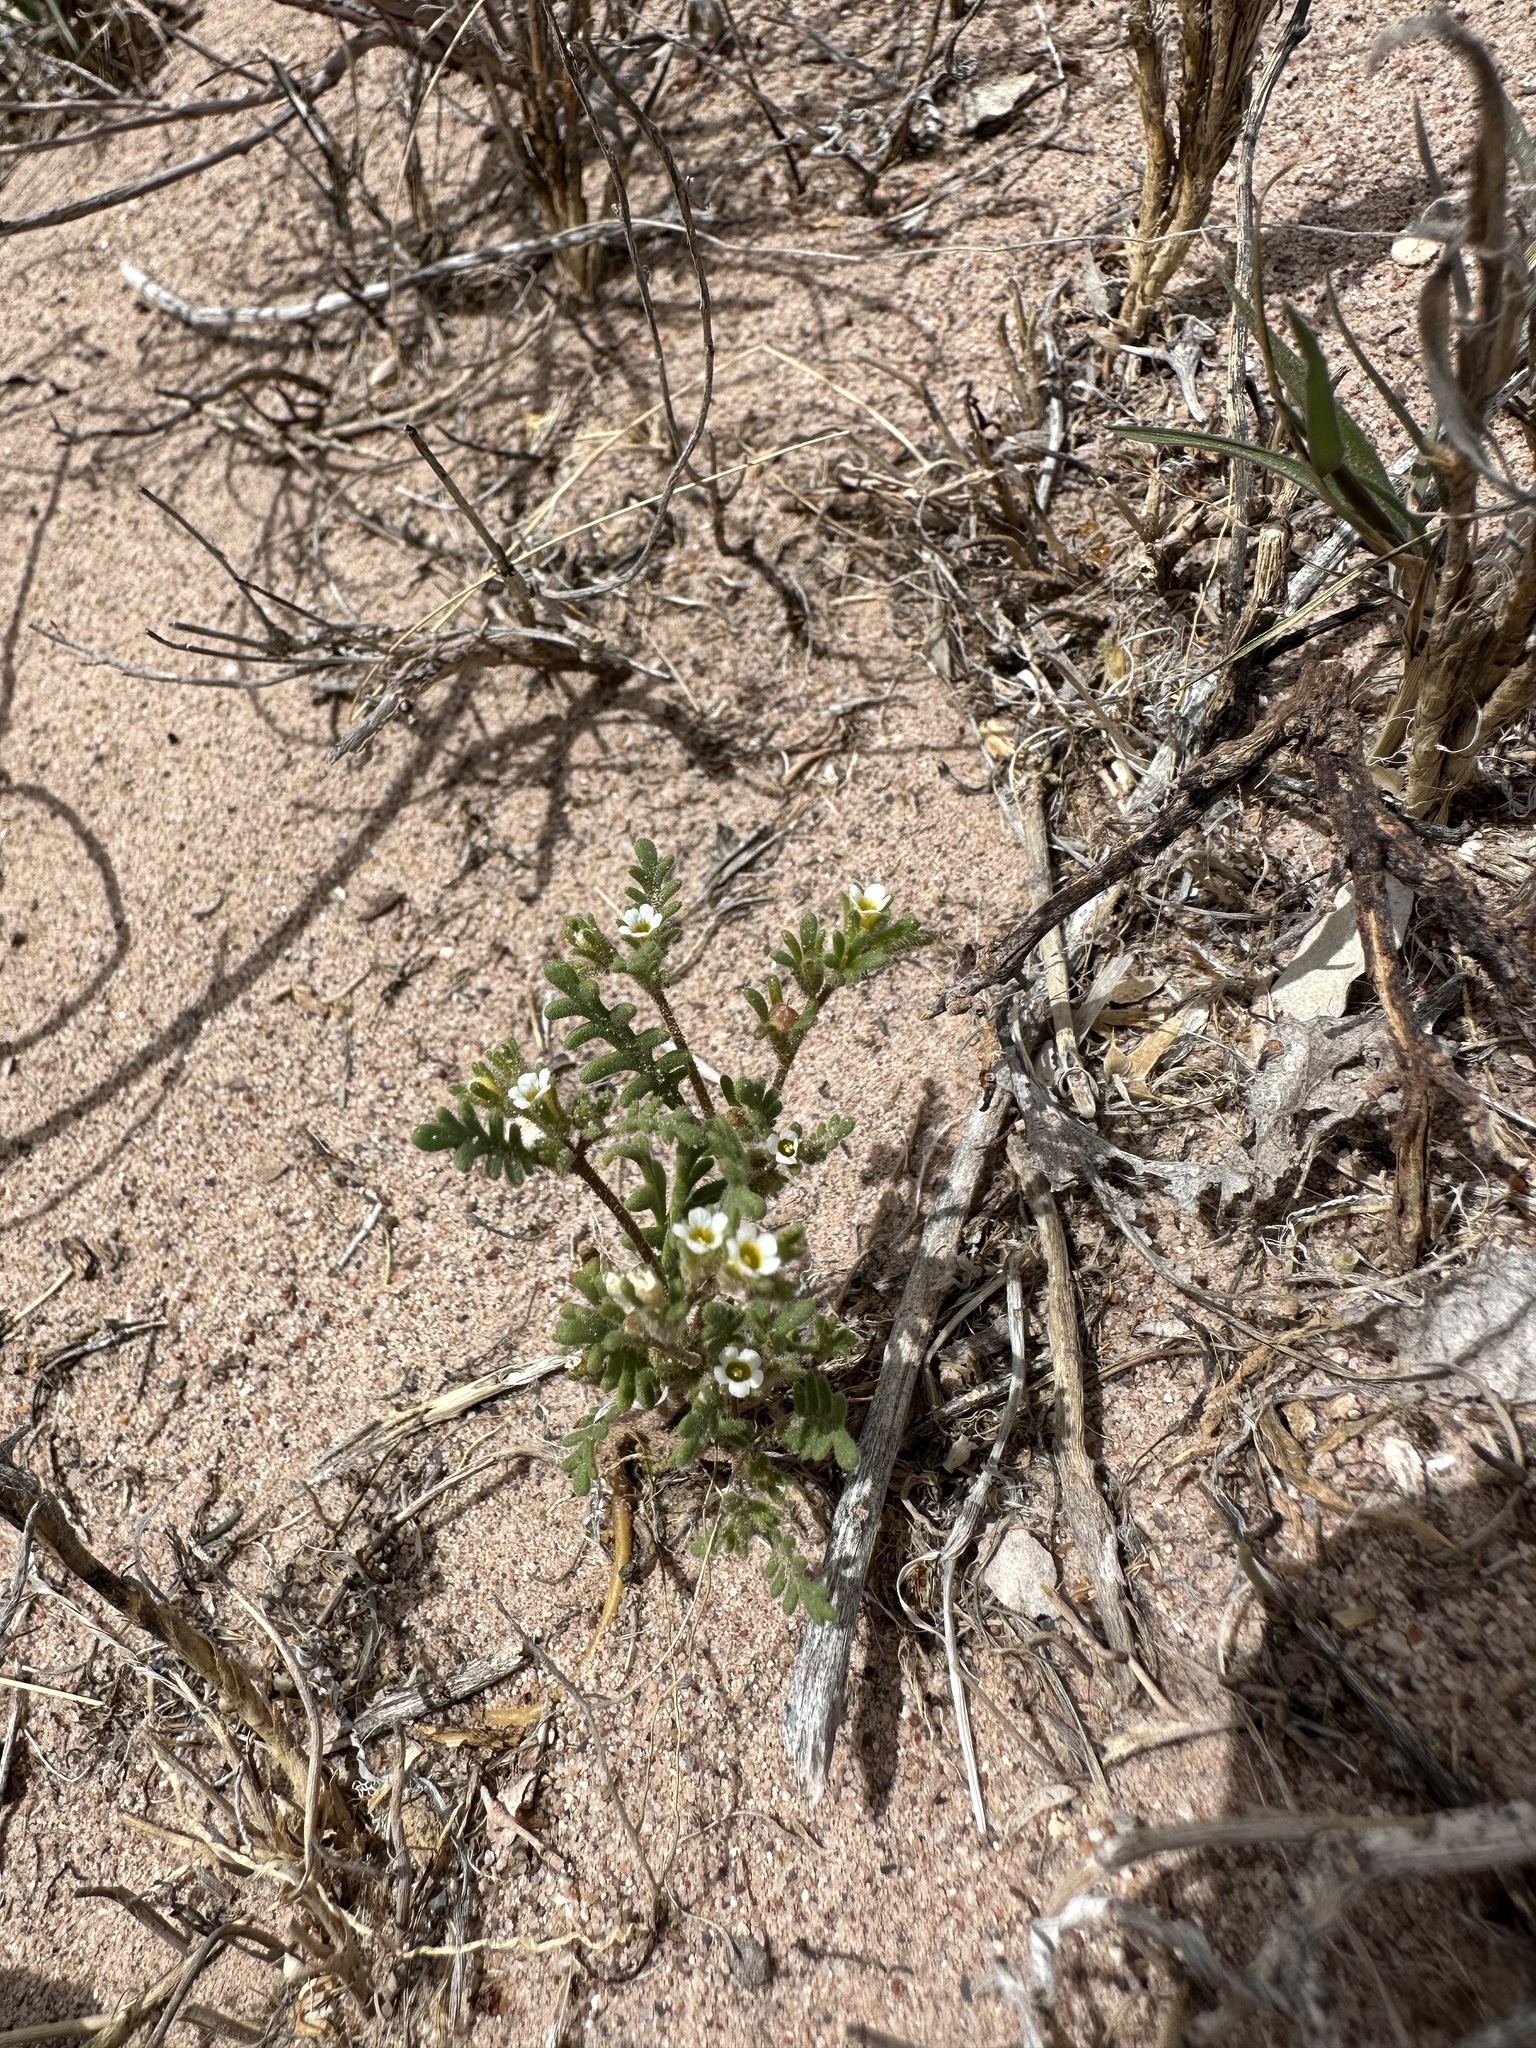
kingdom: Plantae
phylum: Tracheophyta
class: Magnoliopsida
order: Boraginales
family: Hydrophyllaceae
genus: Phacelia
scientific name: Phacelia ivesiana
